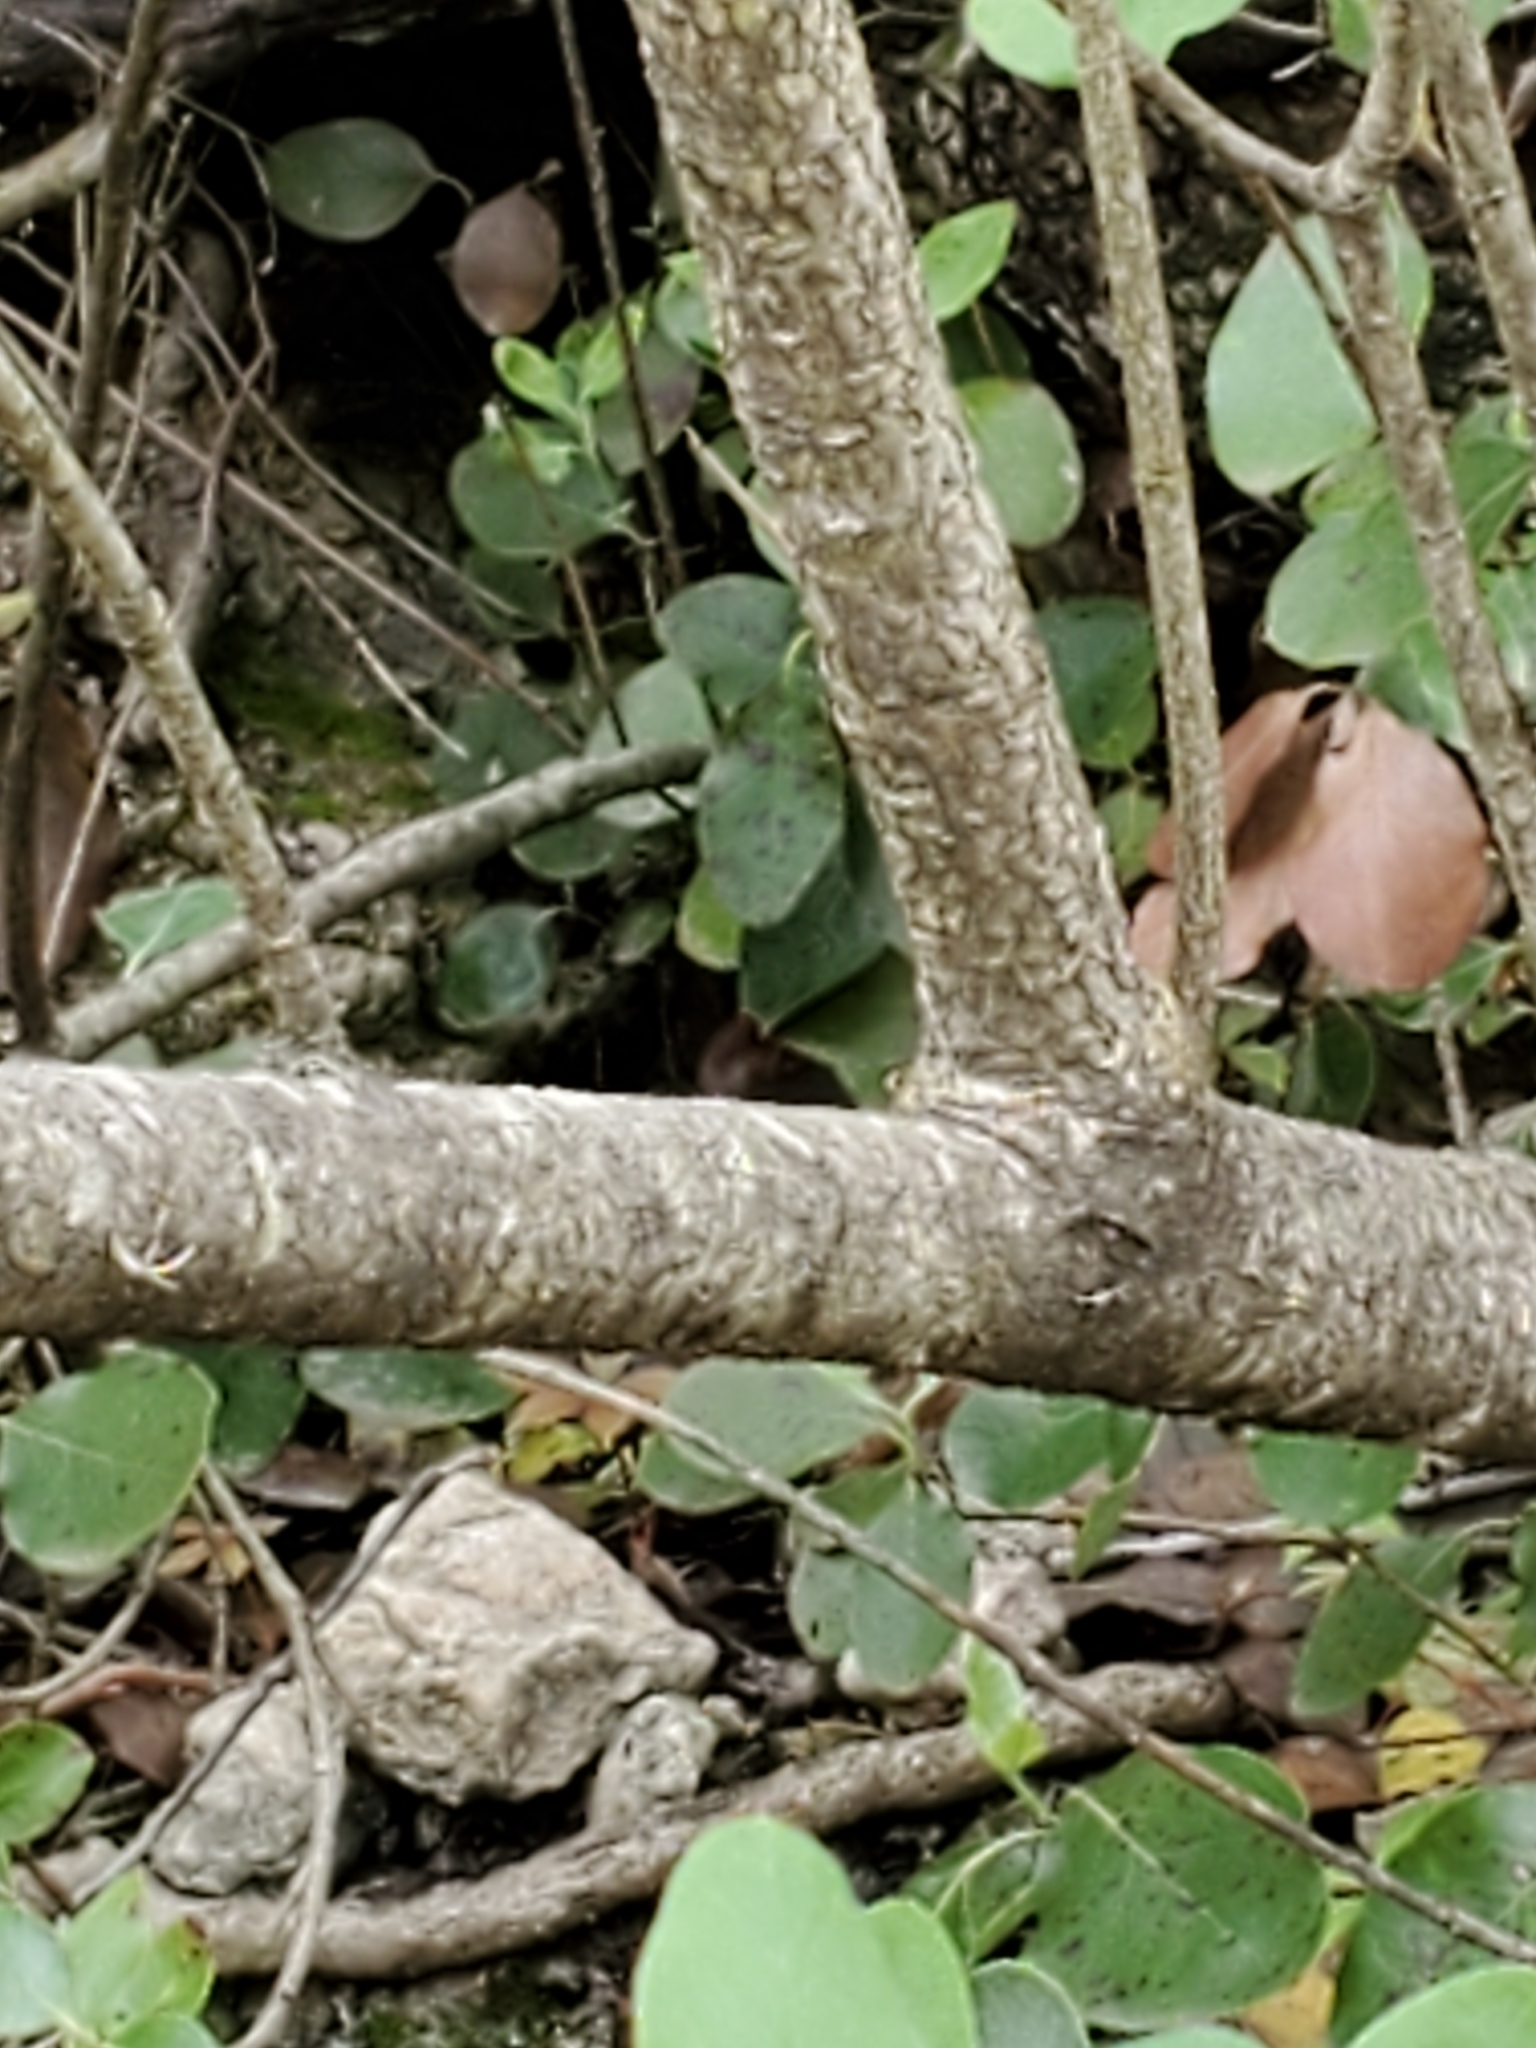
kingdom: Plantae
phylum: Tracheophyta
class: Magnoliopsida
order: Garryales
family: Garryaceae
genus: Garrya
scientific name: Garrya lindheimeri
